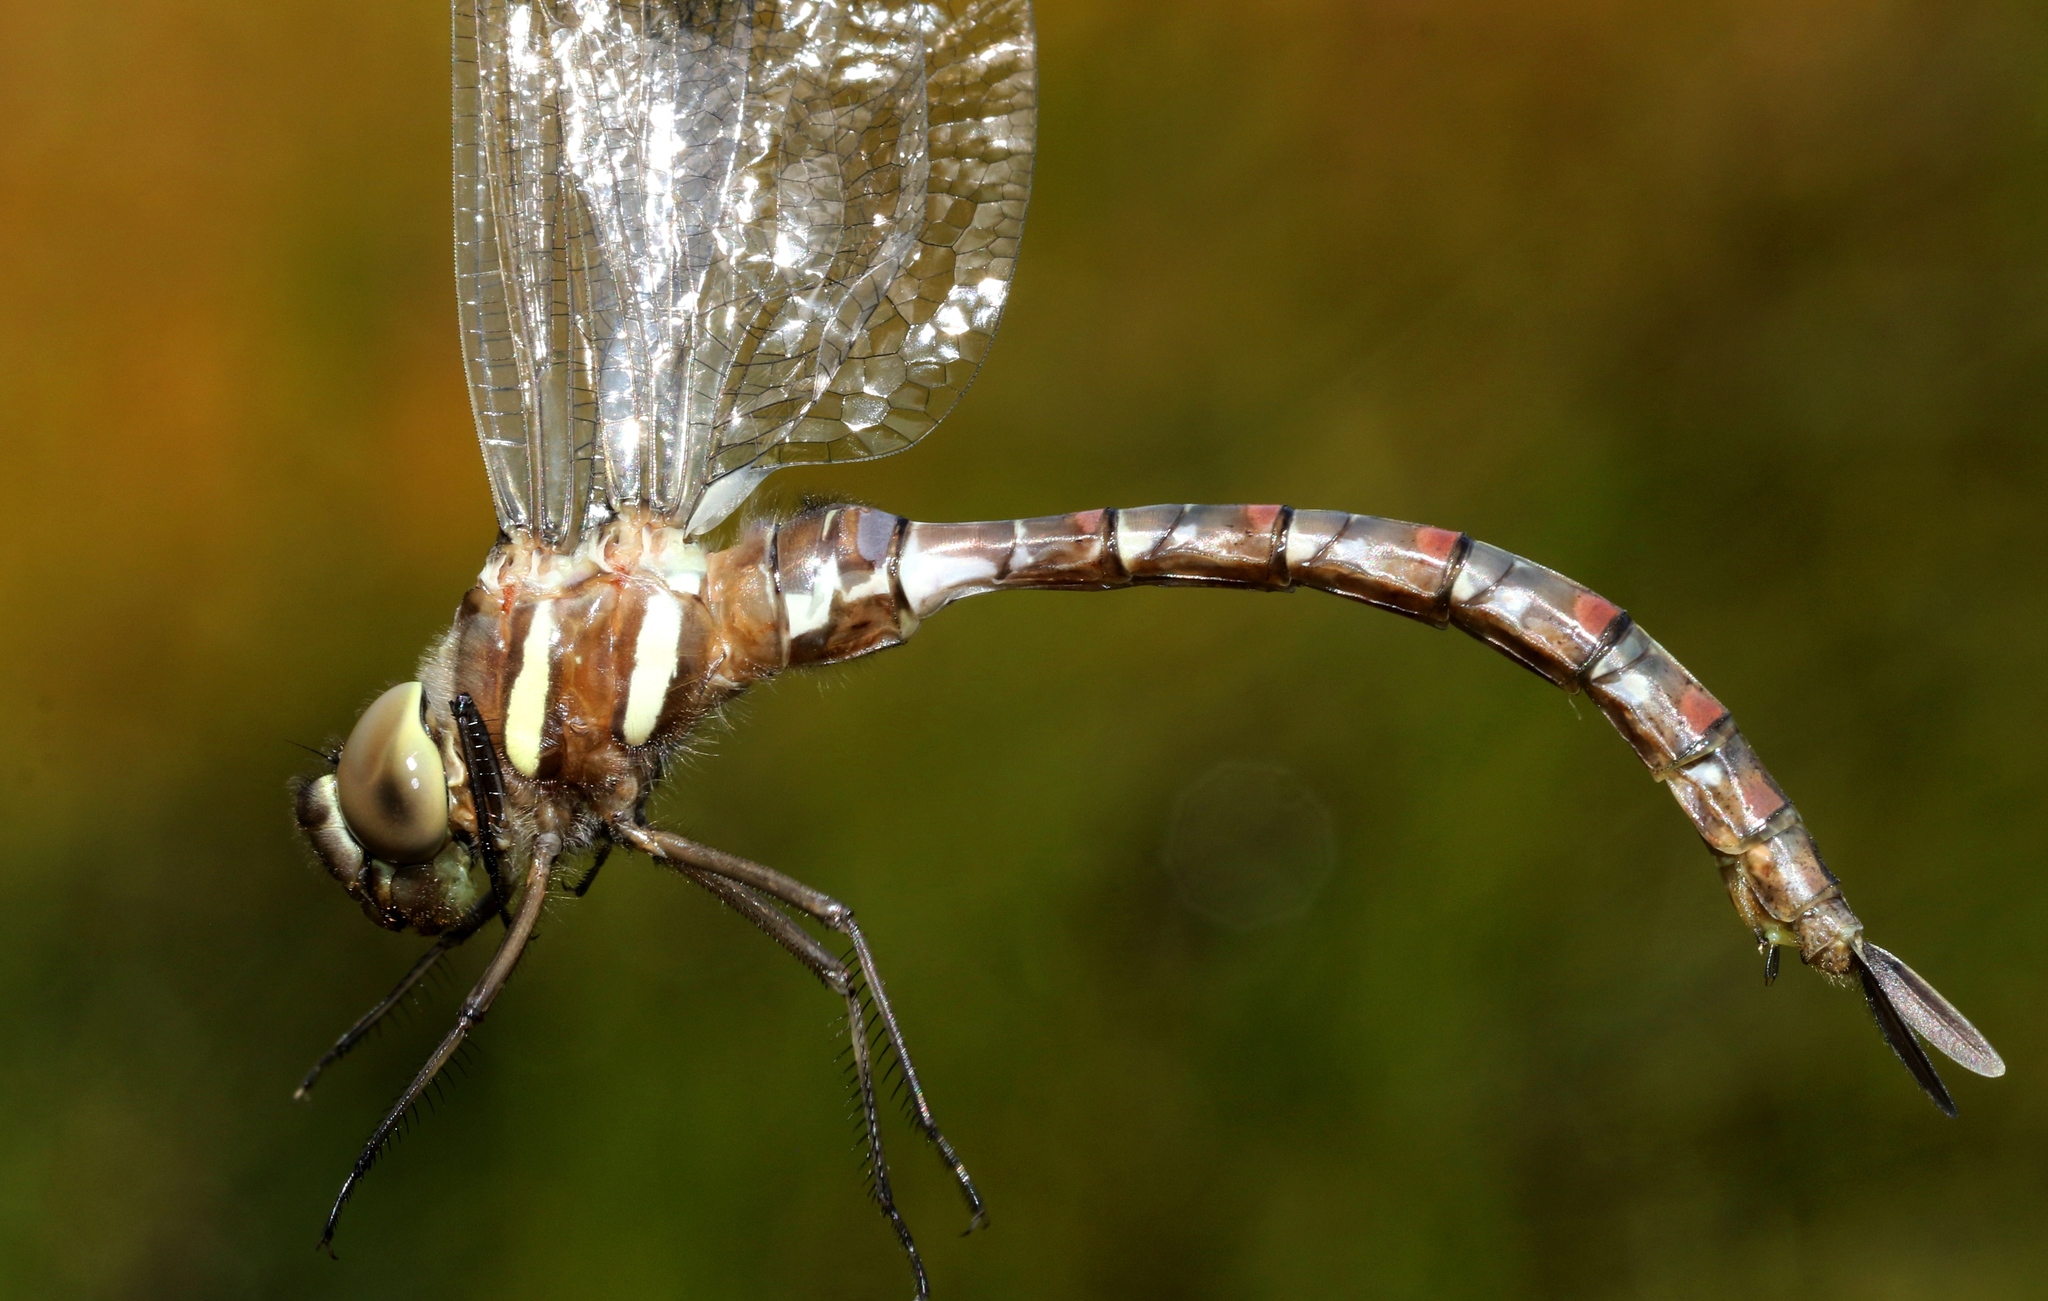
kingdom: Animalia
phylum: Arthropoda
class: Insecta
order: Odonata
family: Aeshnidae
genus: Aeshna
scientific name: Aeshna tuberculifera
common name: Aeschne à tubercules
